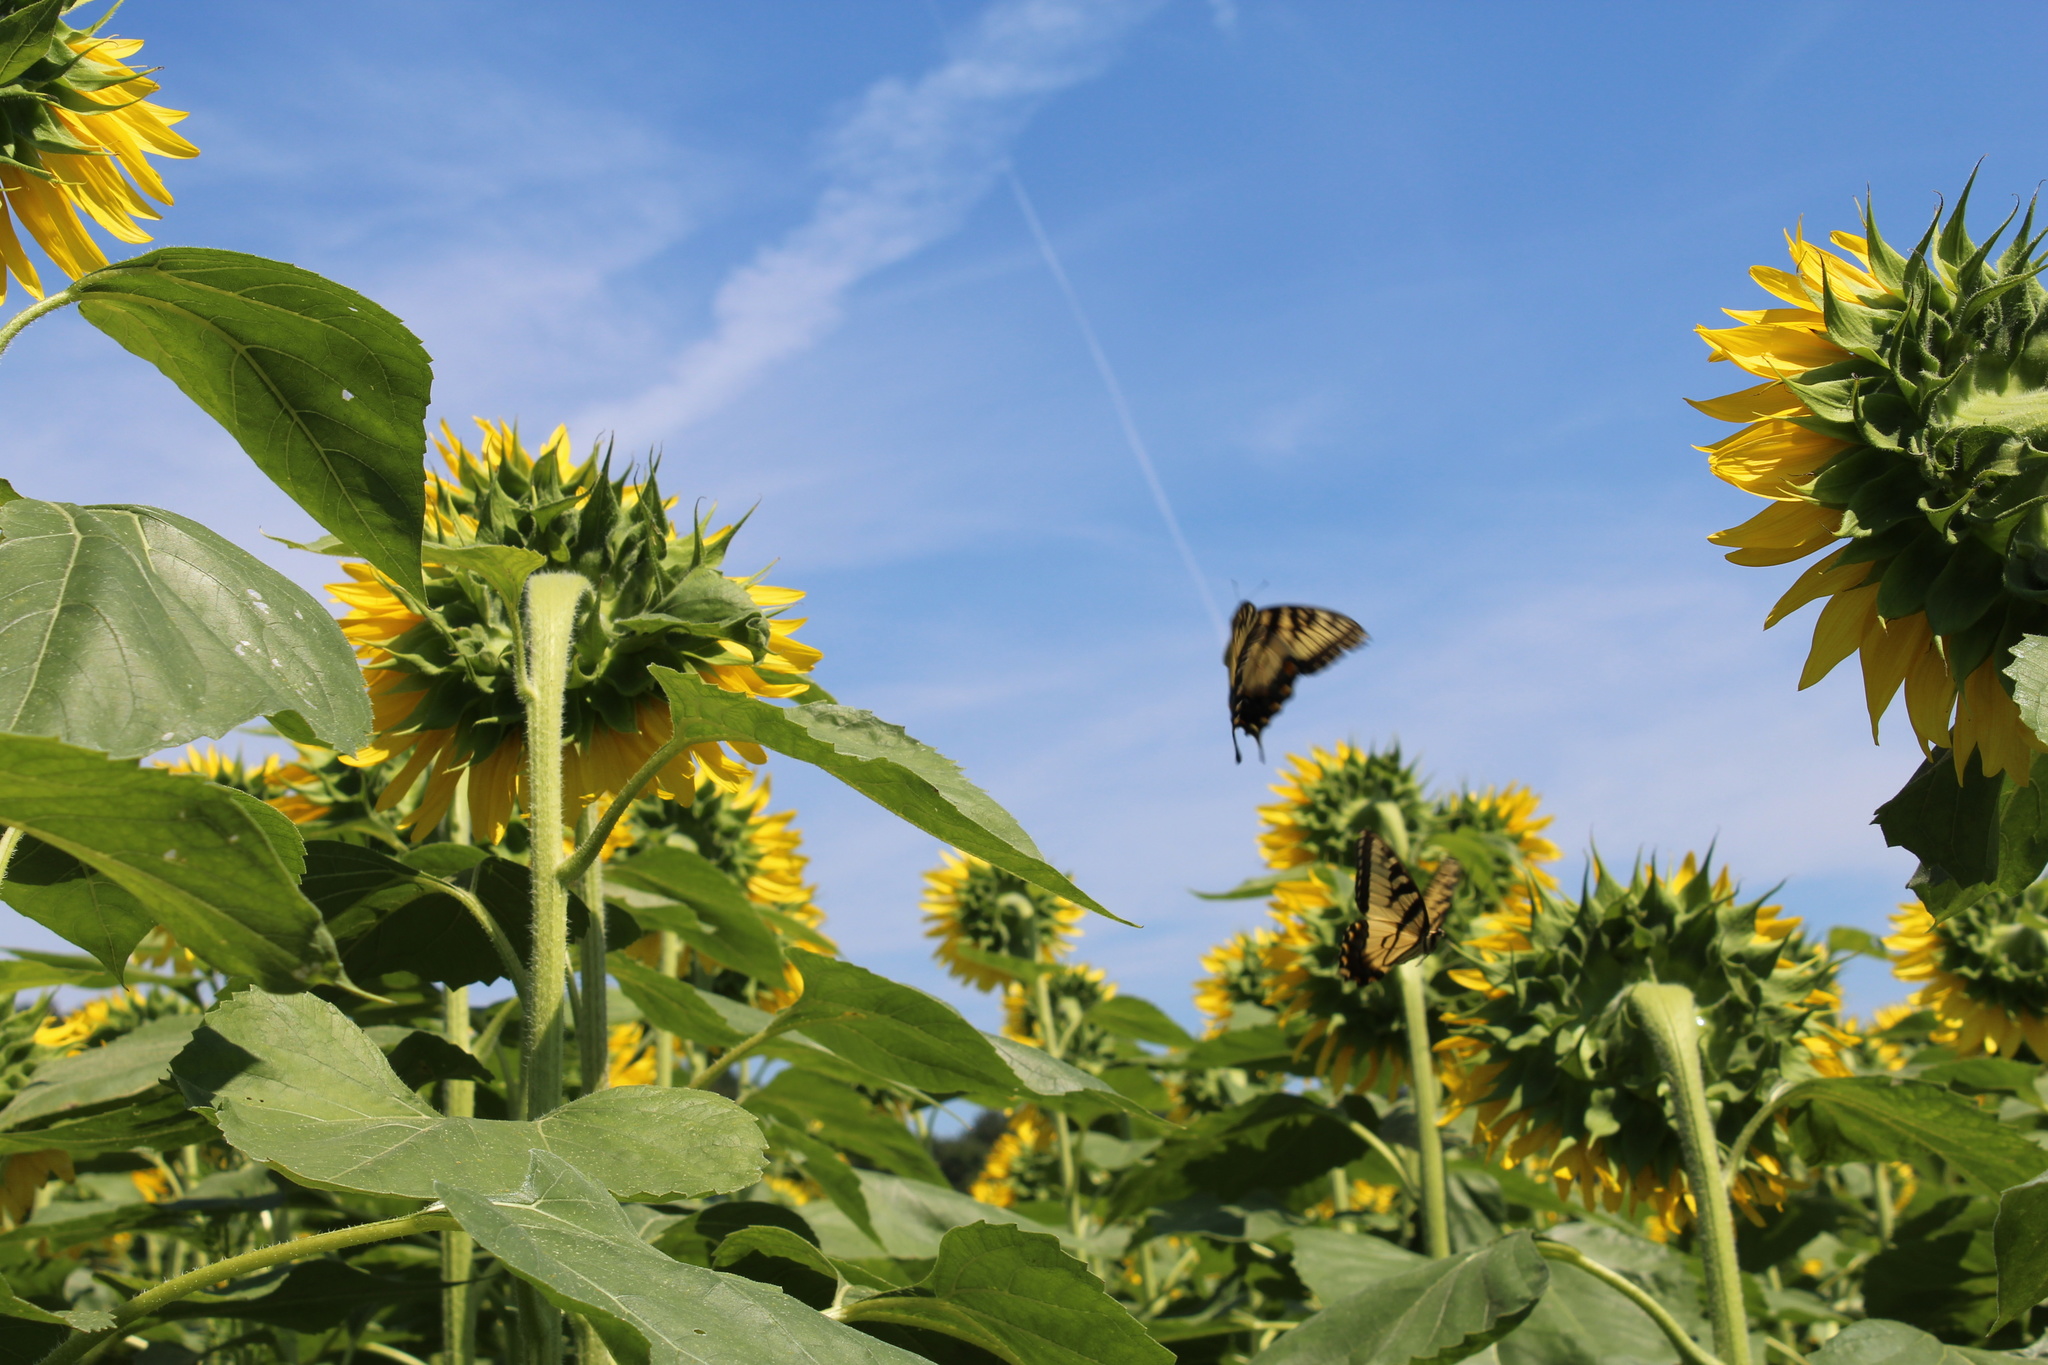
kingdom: Animalia
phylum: Arthropoda
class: Insecta
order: Lepidoptera
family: Papilionidae
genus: Papilio
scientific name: Papilio glaucus
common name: Tiger swallowtail
